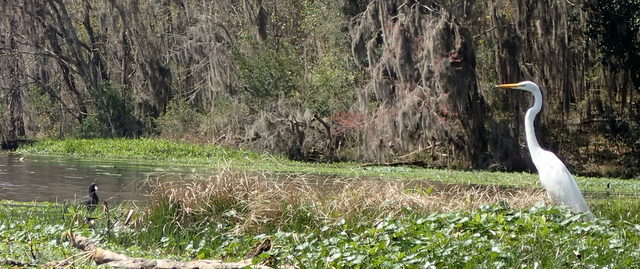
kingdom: Animalia
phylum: Chordata
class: Aves
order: Pelecaniformes
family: Ardeidae
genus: Ardea
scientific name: Ardea alba
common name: Great egret
